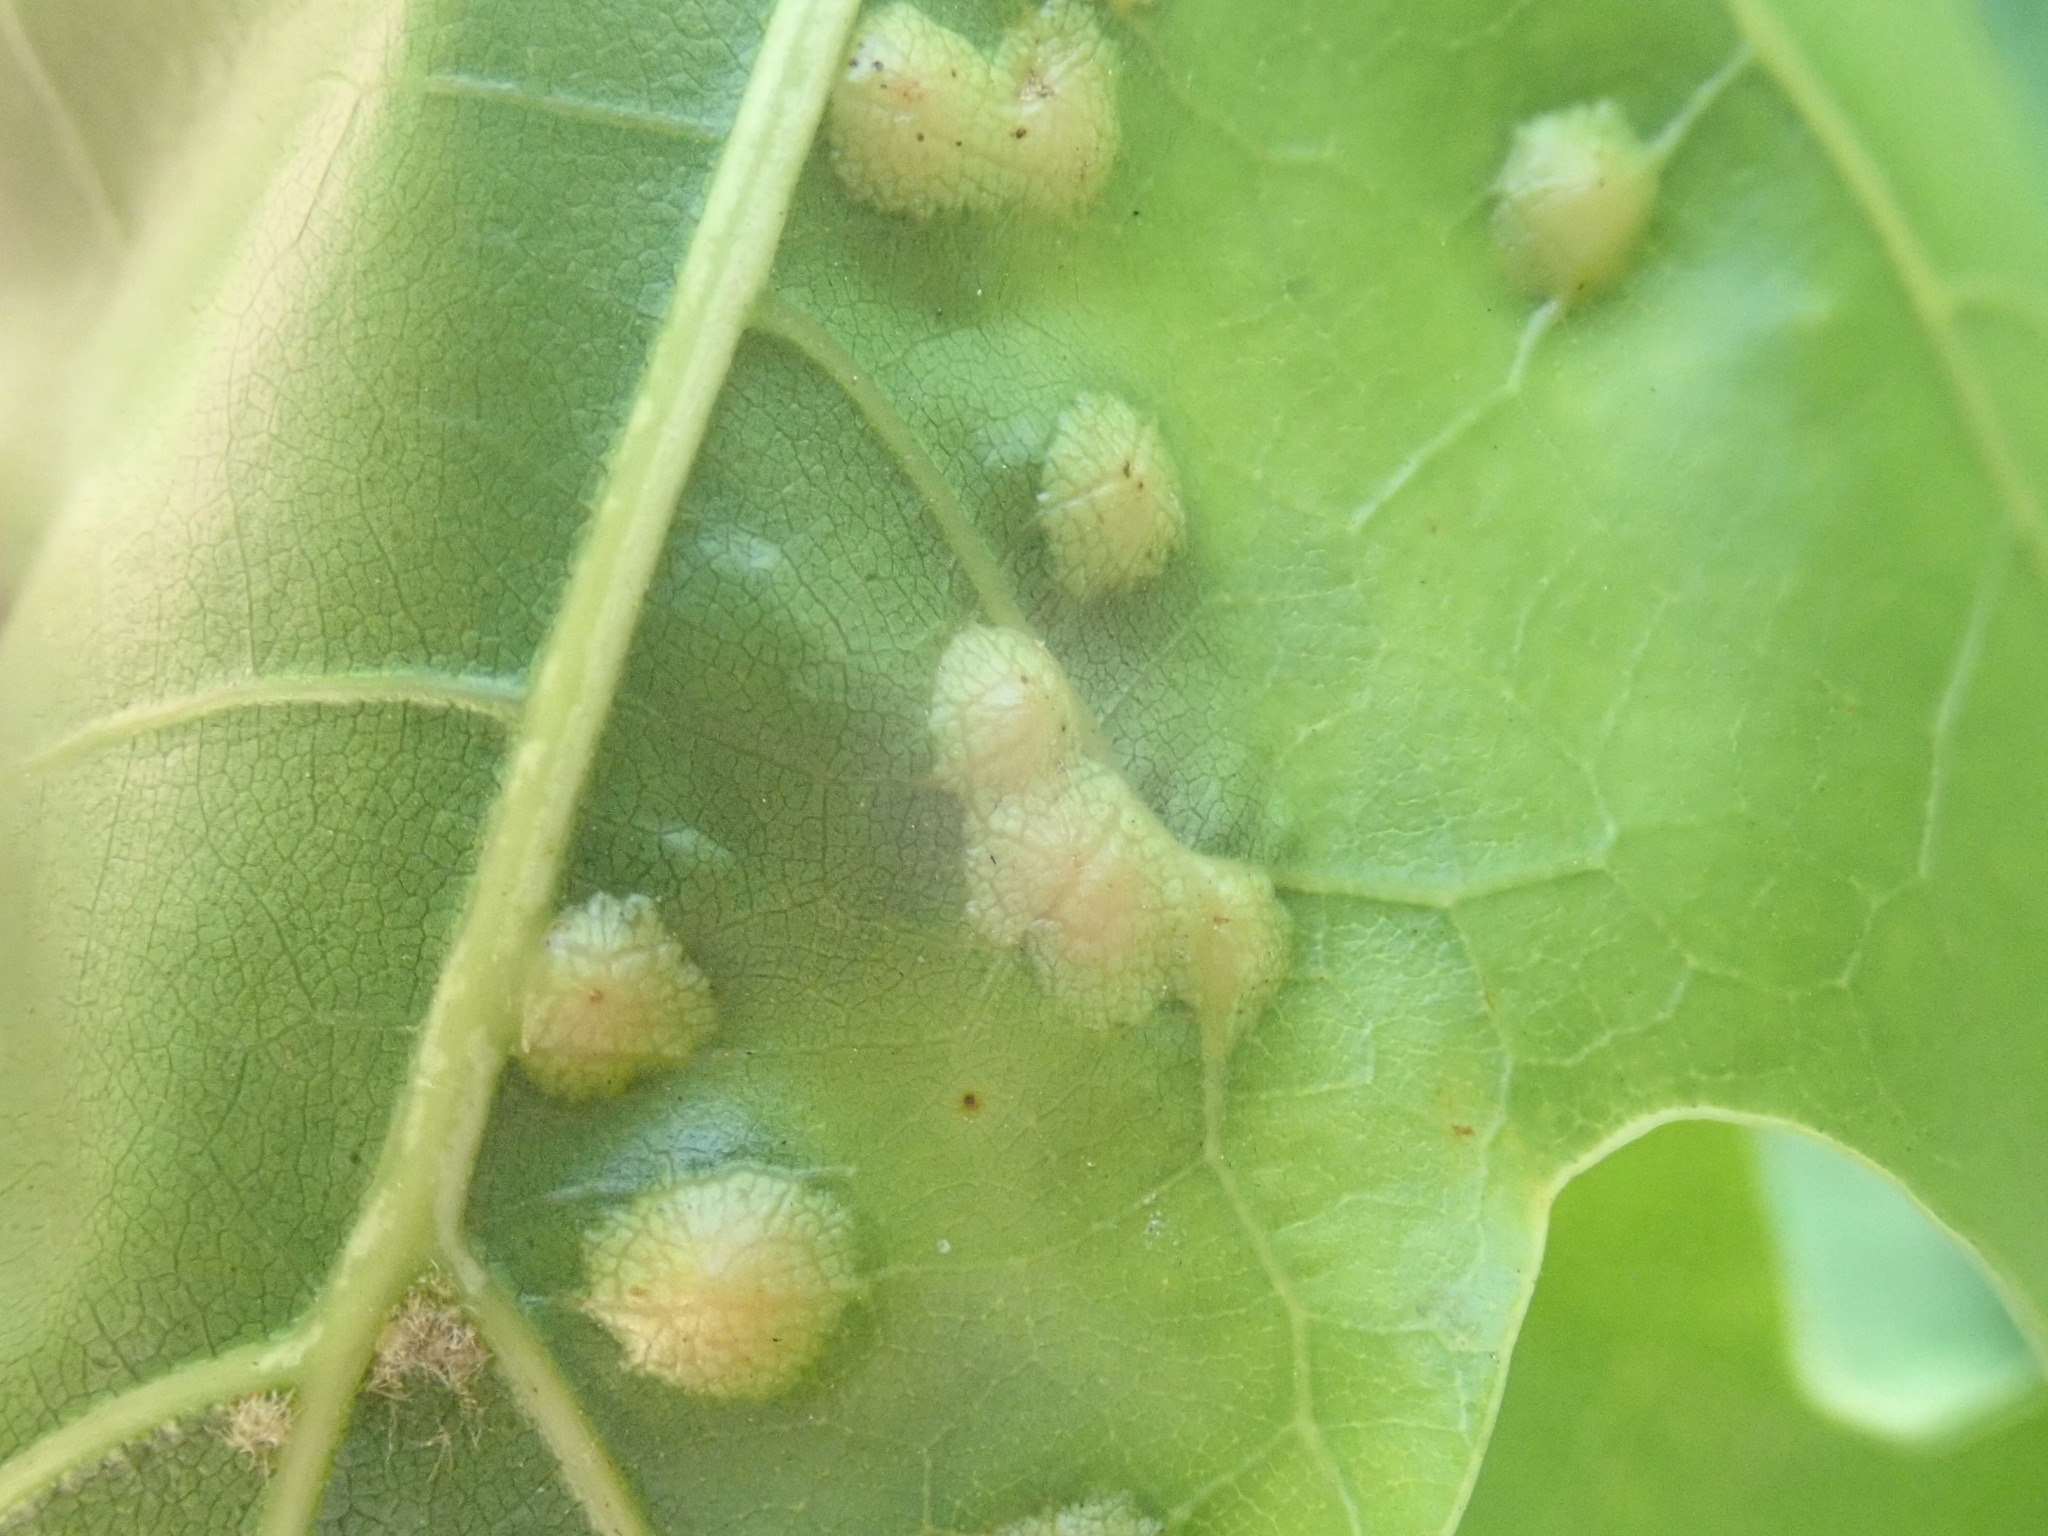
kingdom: Animalia
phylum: Arthropoda
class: Insecta
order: Diptera
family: Cecidomyiidae
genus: Polystepha
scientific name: Polystepha pilulae
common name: Oak leaf gall midge
